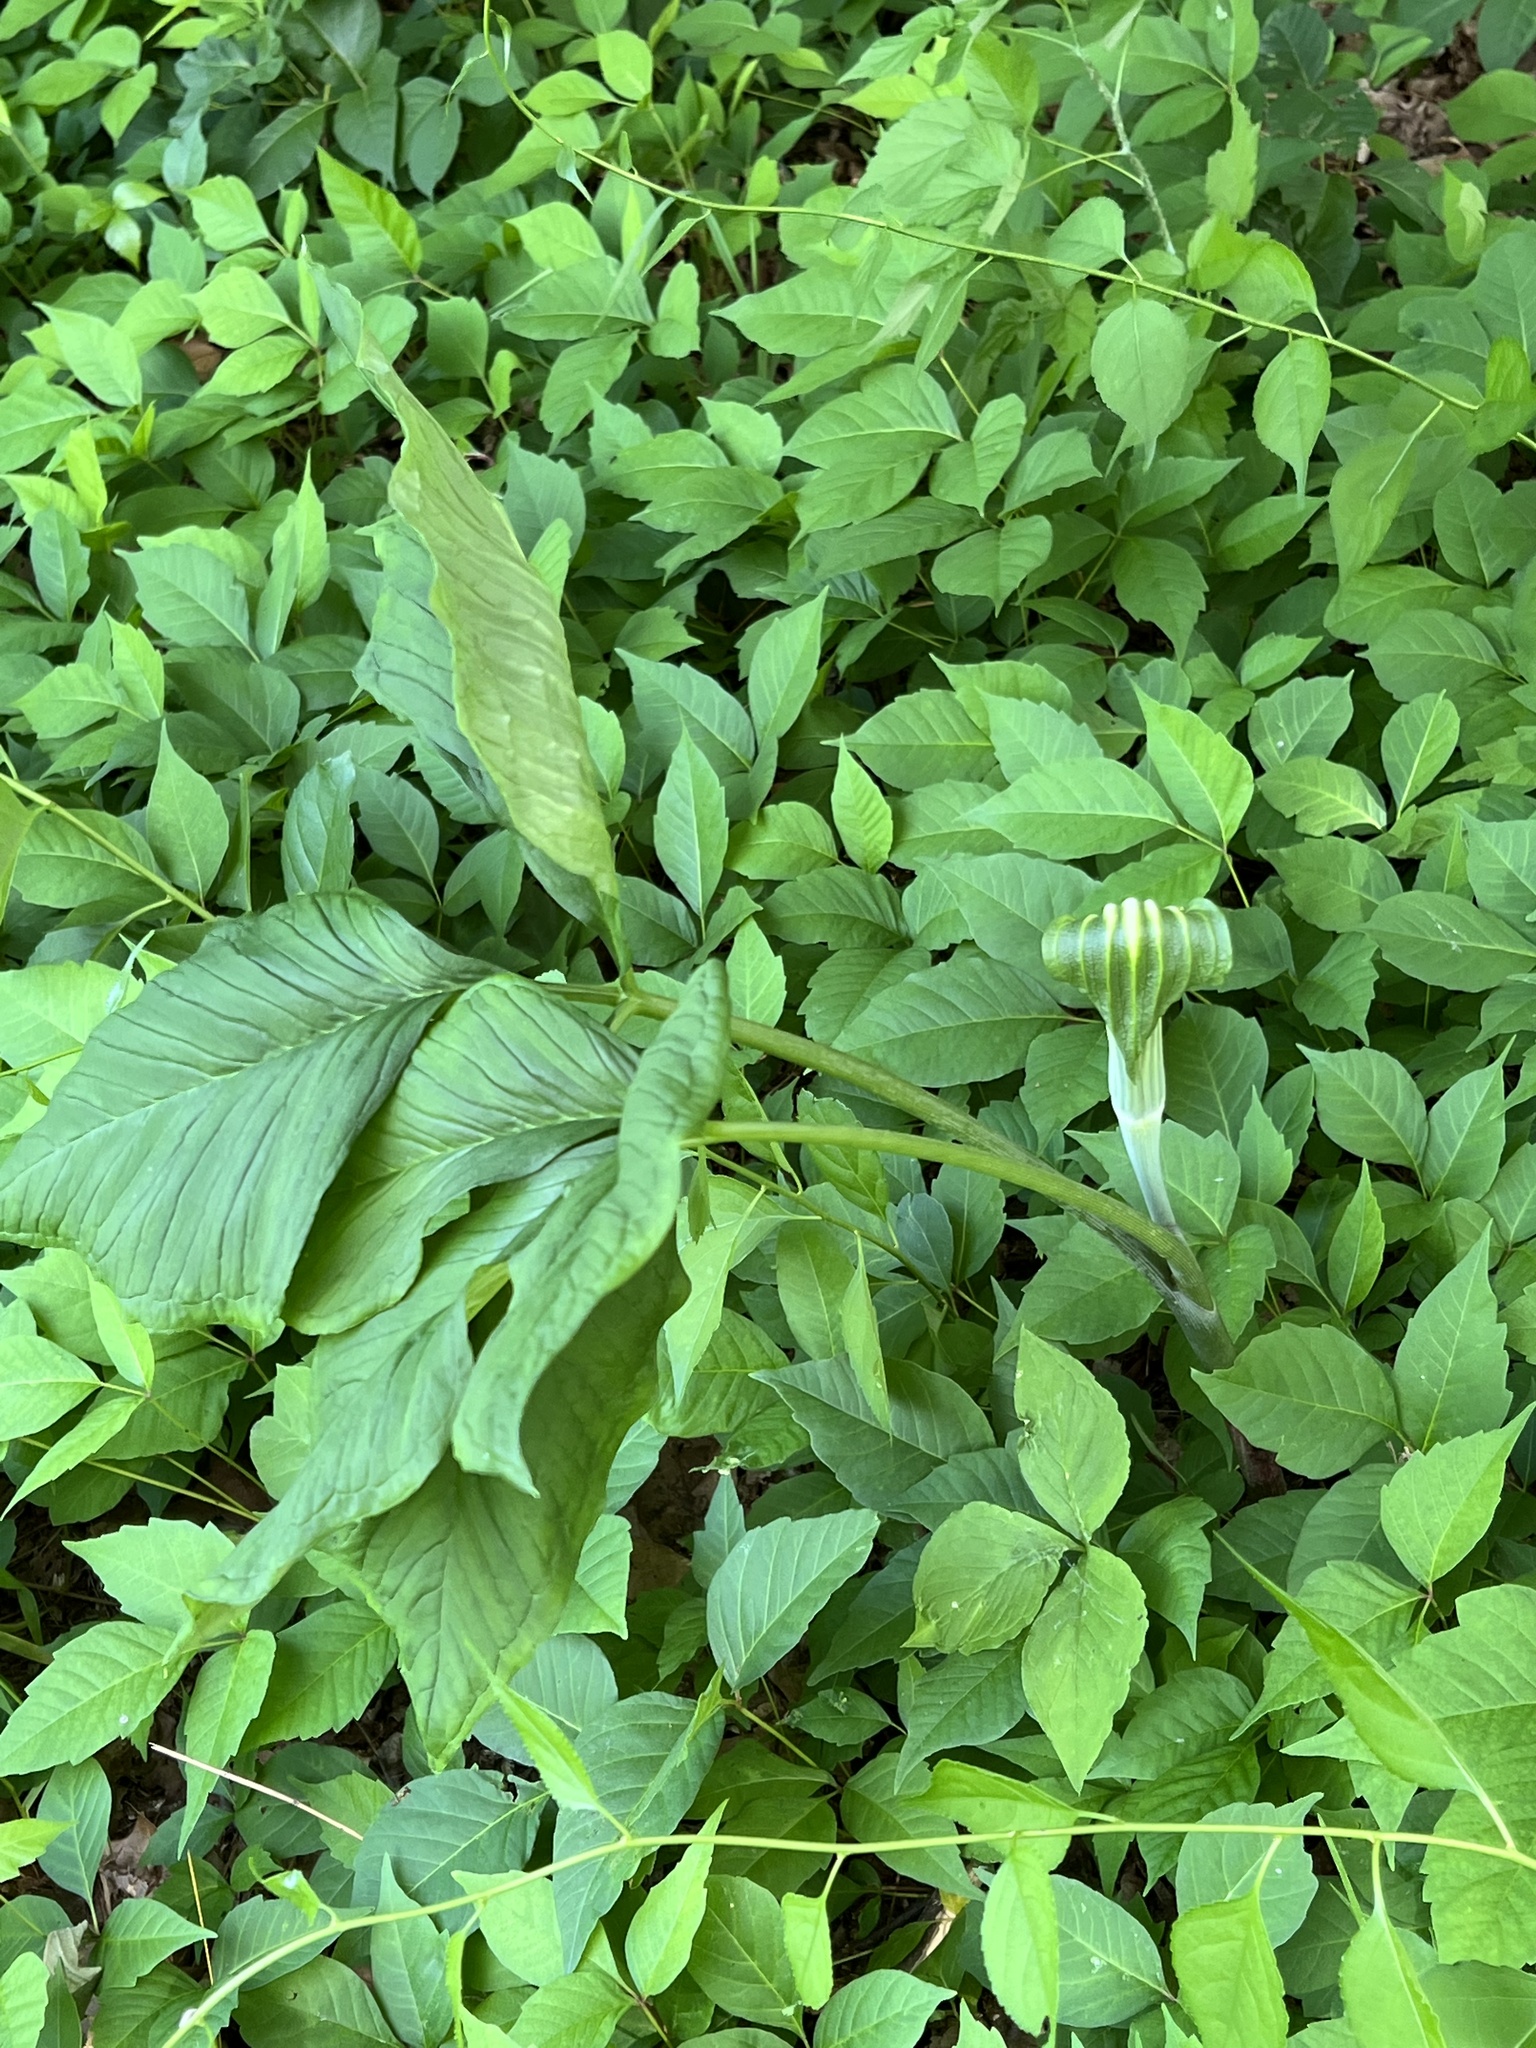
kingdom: Plantae
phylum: Tracheophyta
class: Liliopsida
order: Alismatales
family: Araceae
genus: Arisaema
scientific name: Arisaema triphyllum
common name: Jack-in-the-pulpit
